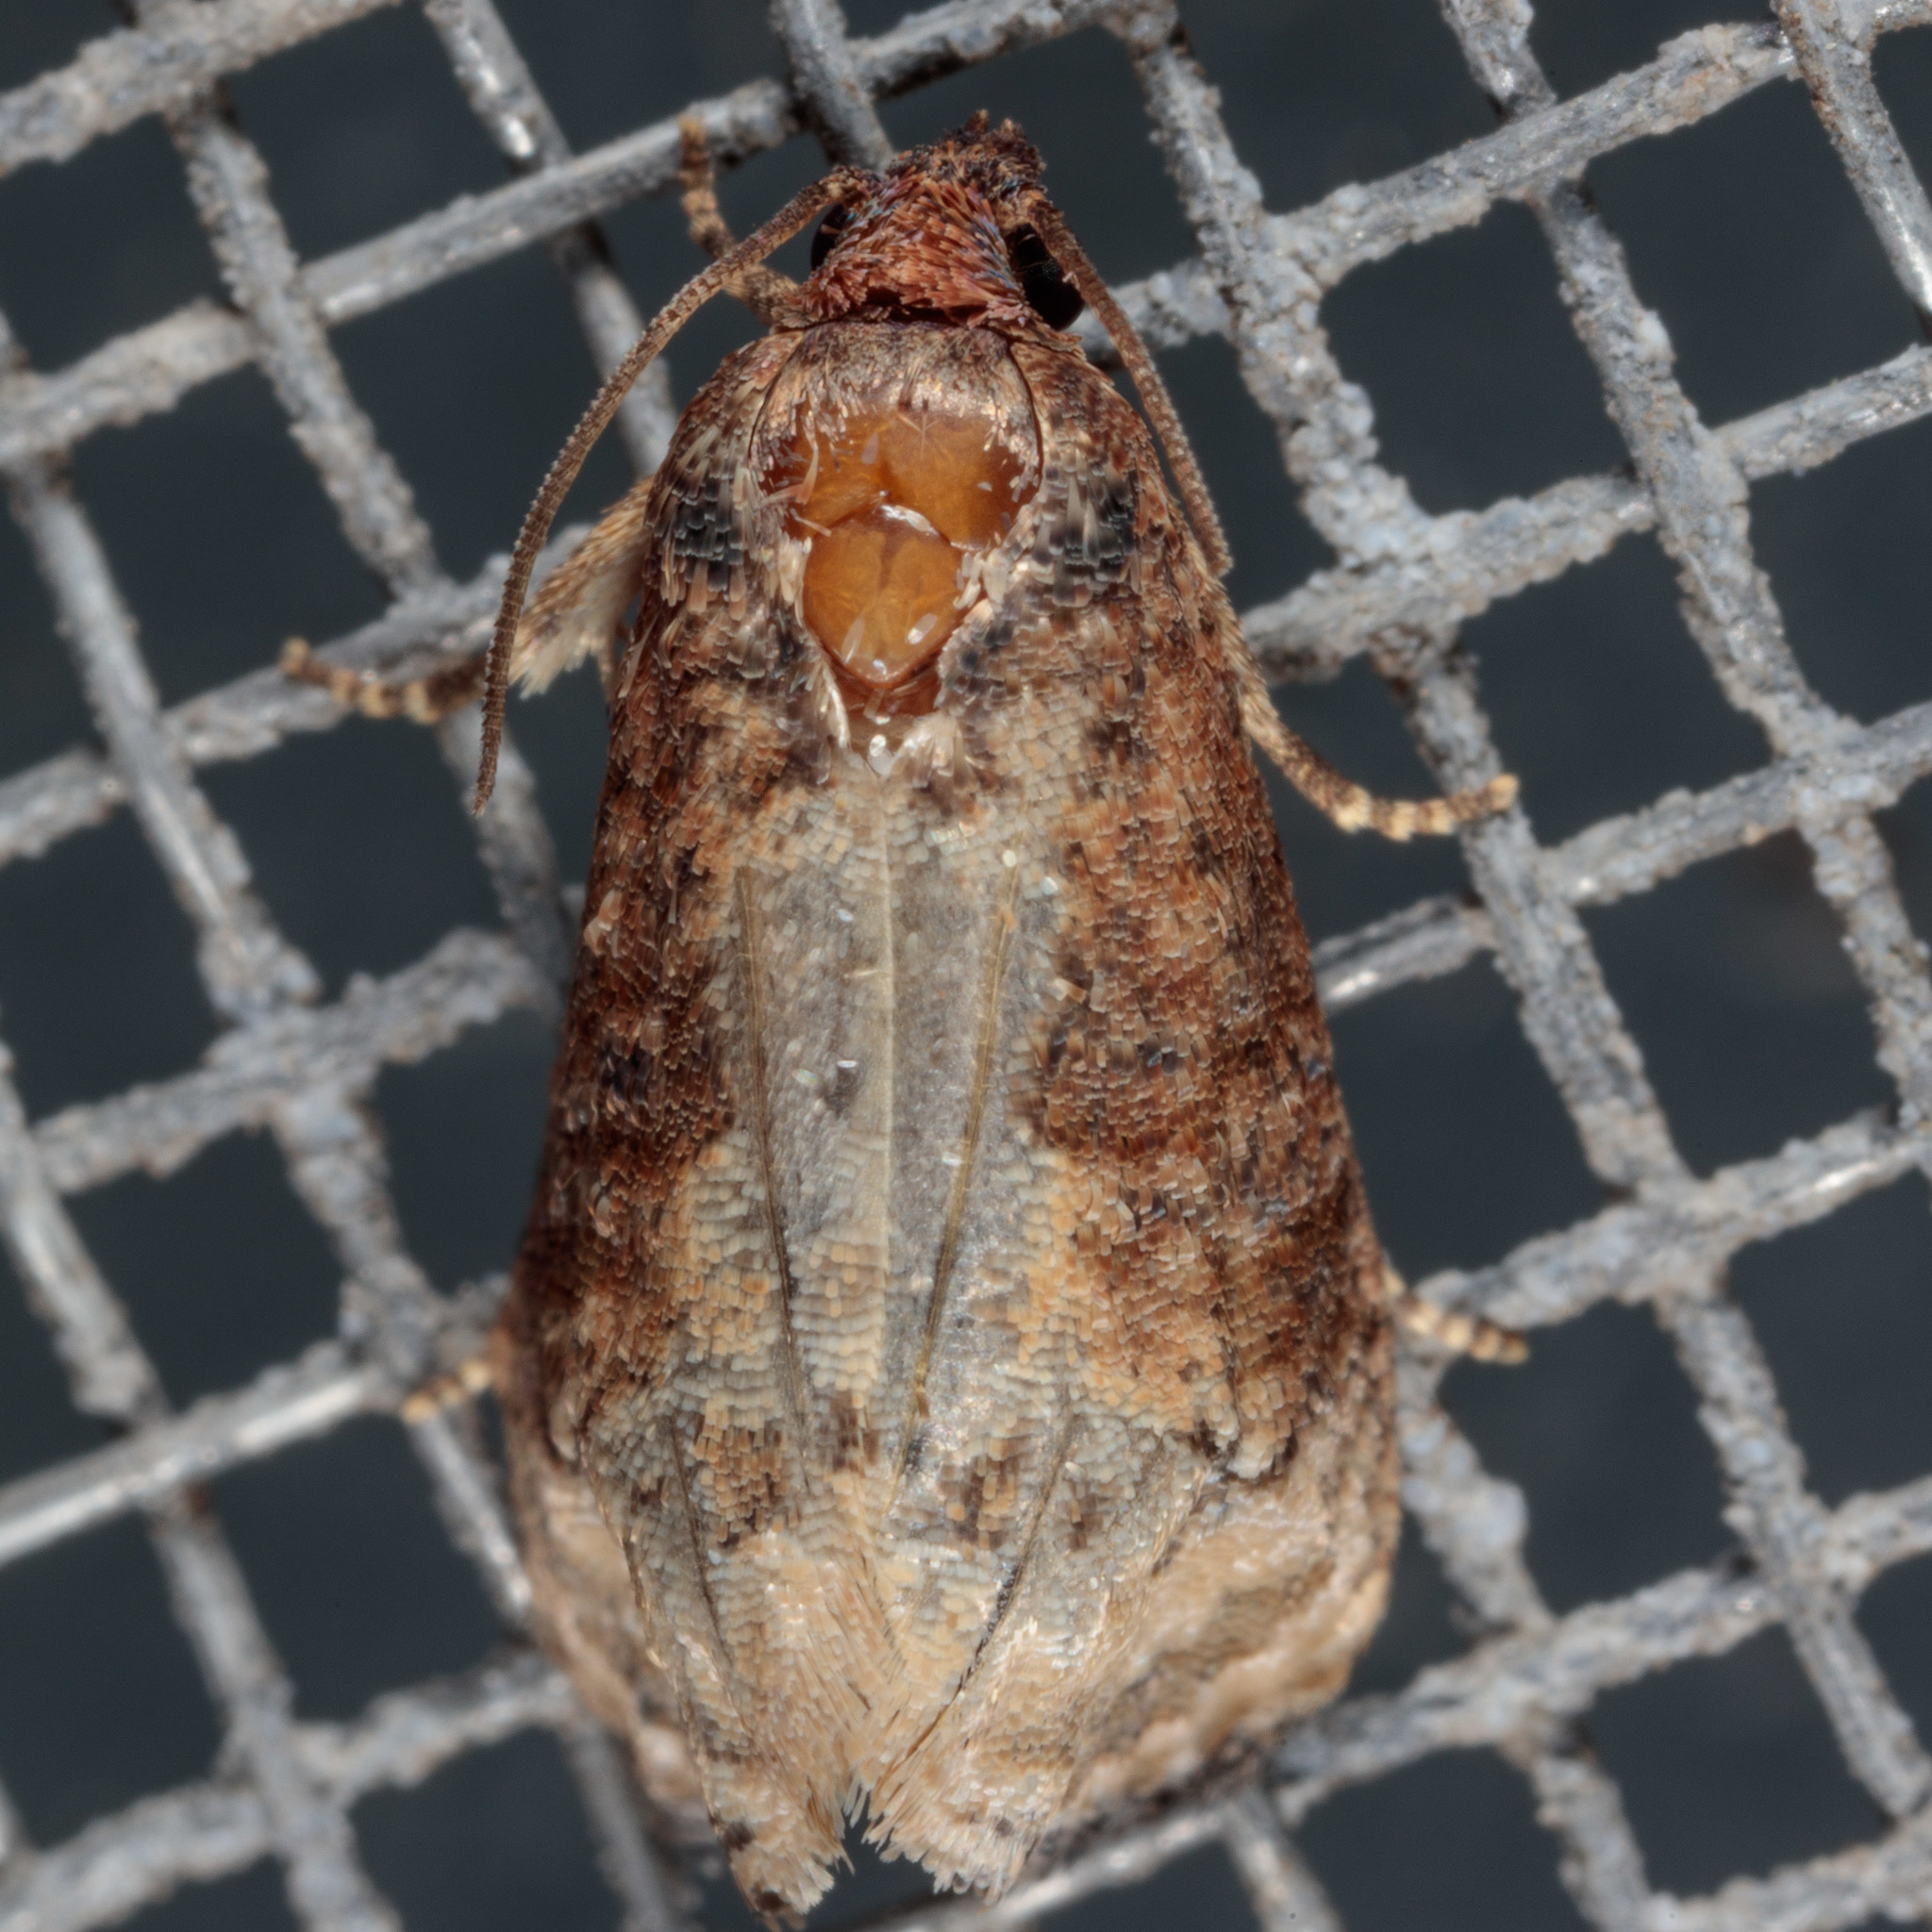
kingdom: Animalia
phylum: Arthropoda
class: Insecta
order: Lepidoptera
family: Tortricidae
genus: Ecdytolopha
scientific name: Ecdytolopha mana
